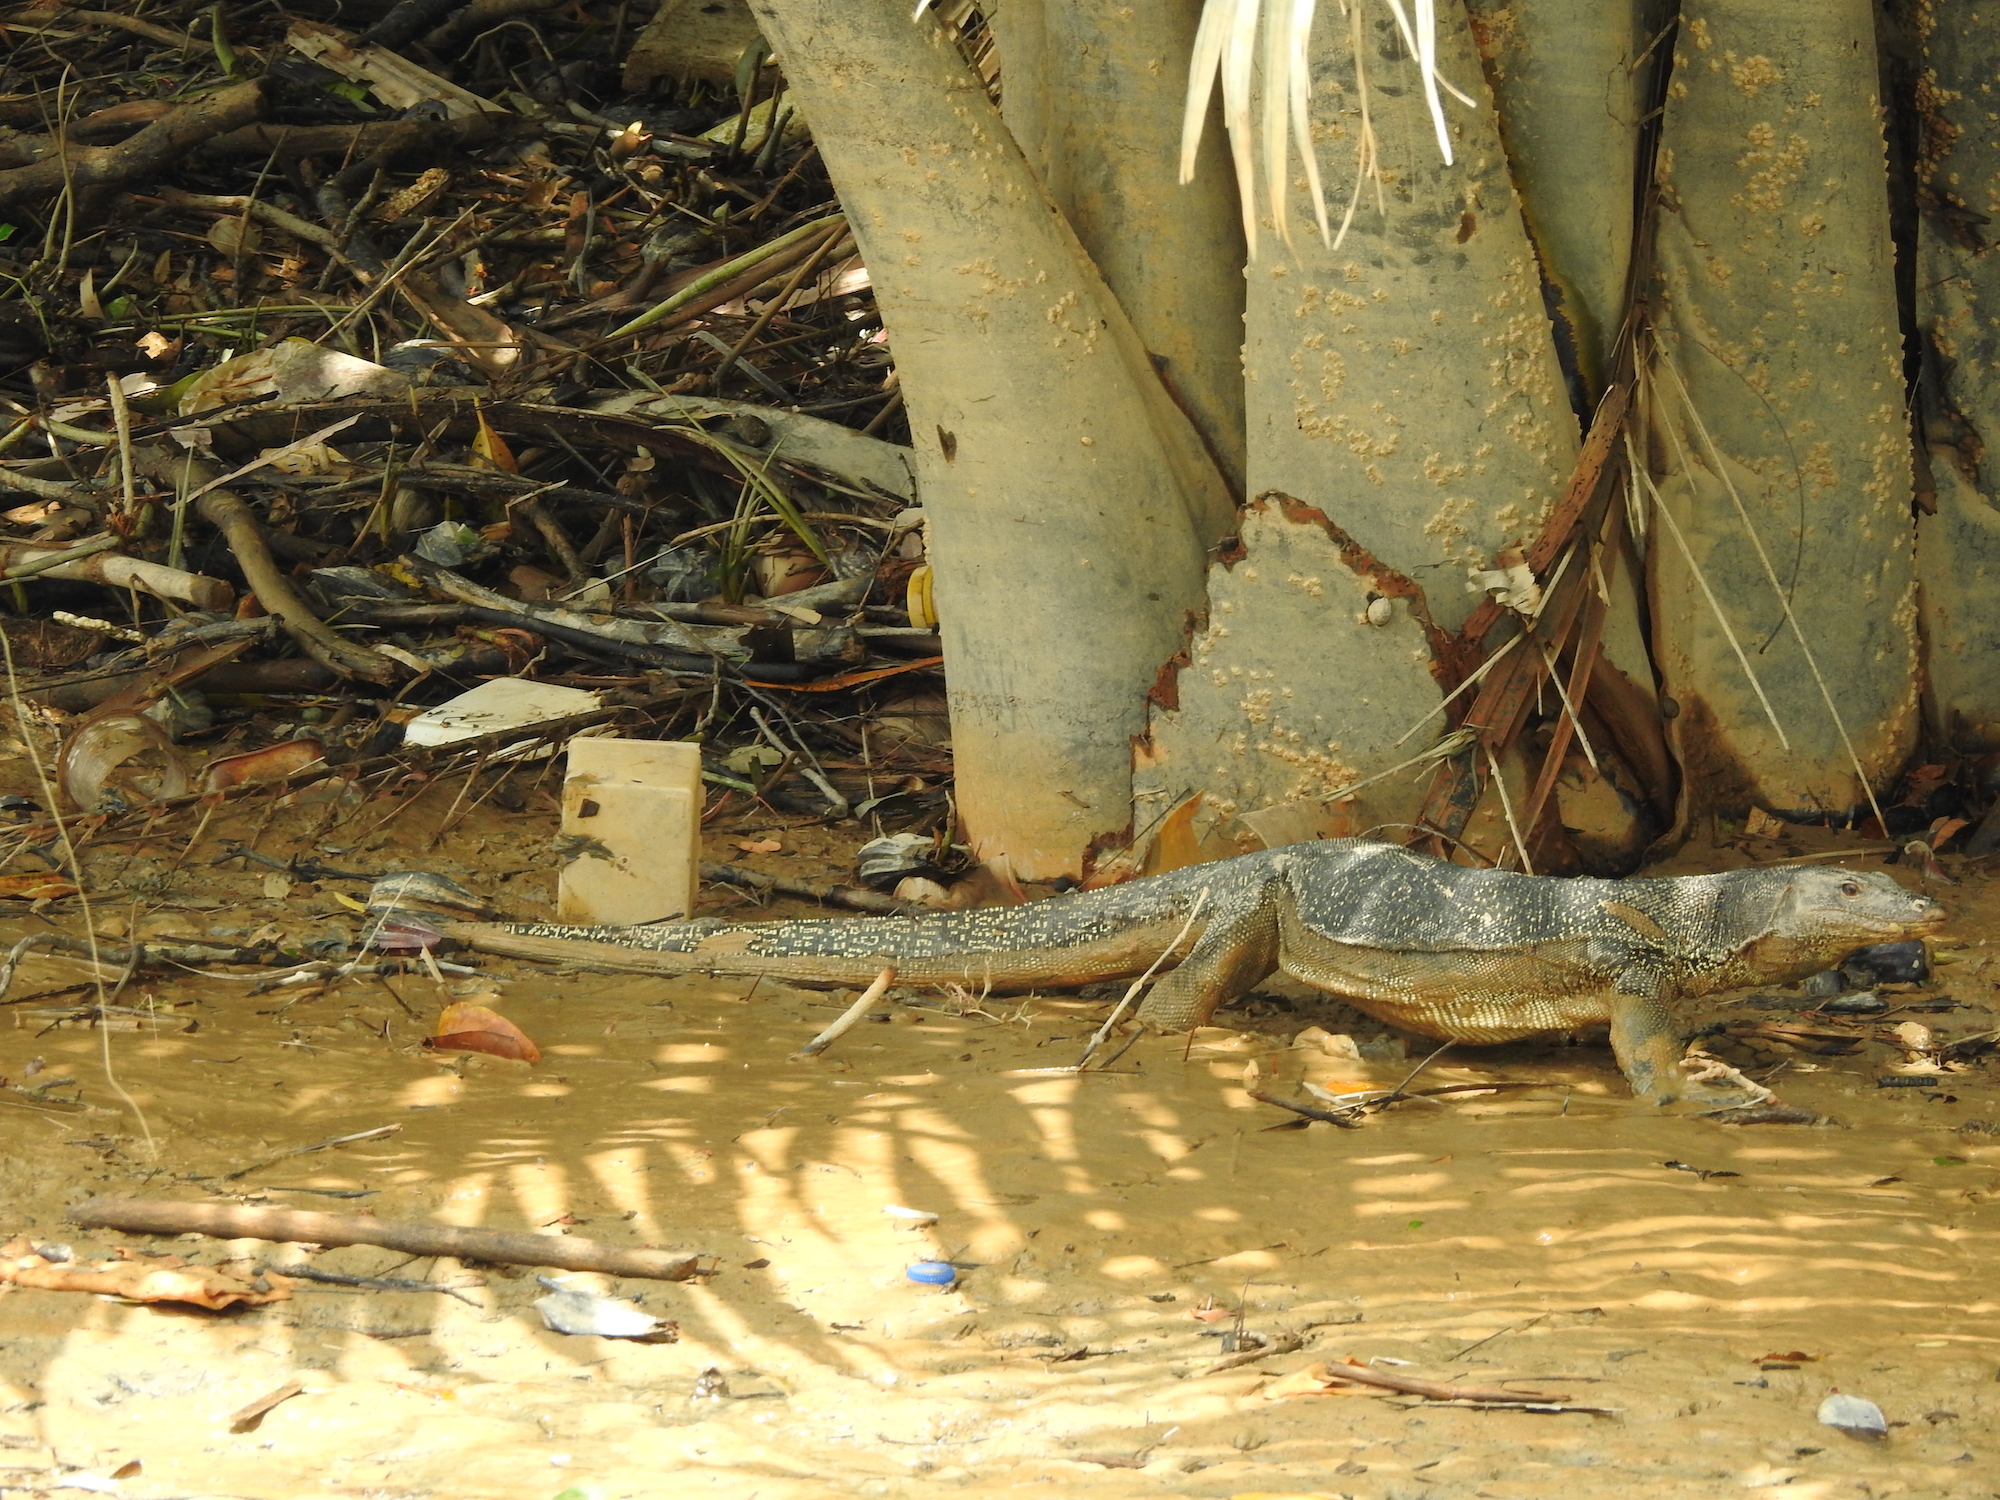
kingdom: Animalia
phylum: Chordata
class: Squamata
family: Varanidae
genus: Varanus
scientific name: Varanus salvator
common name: Common water monitor
